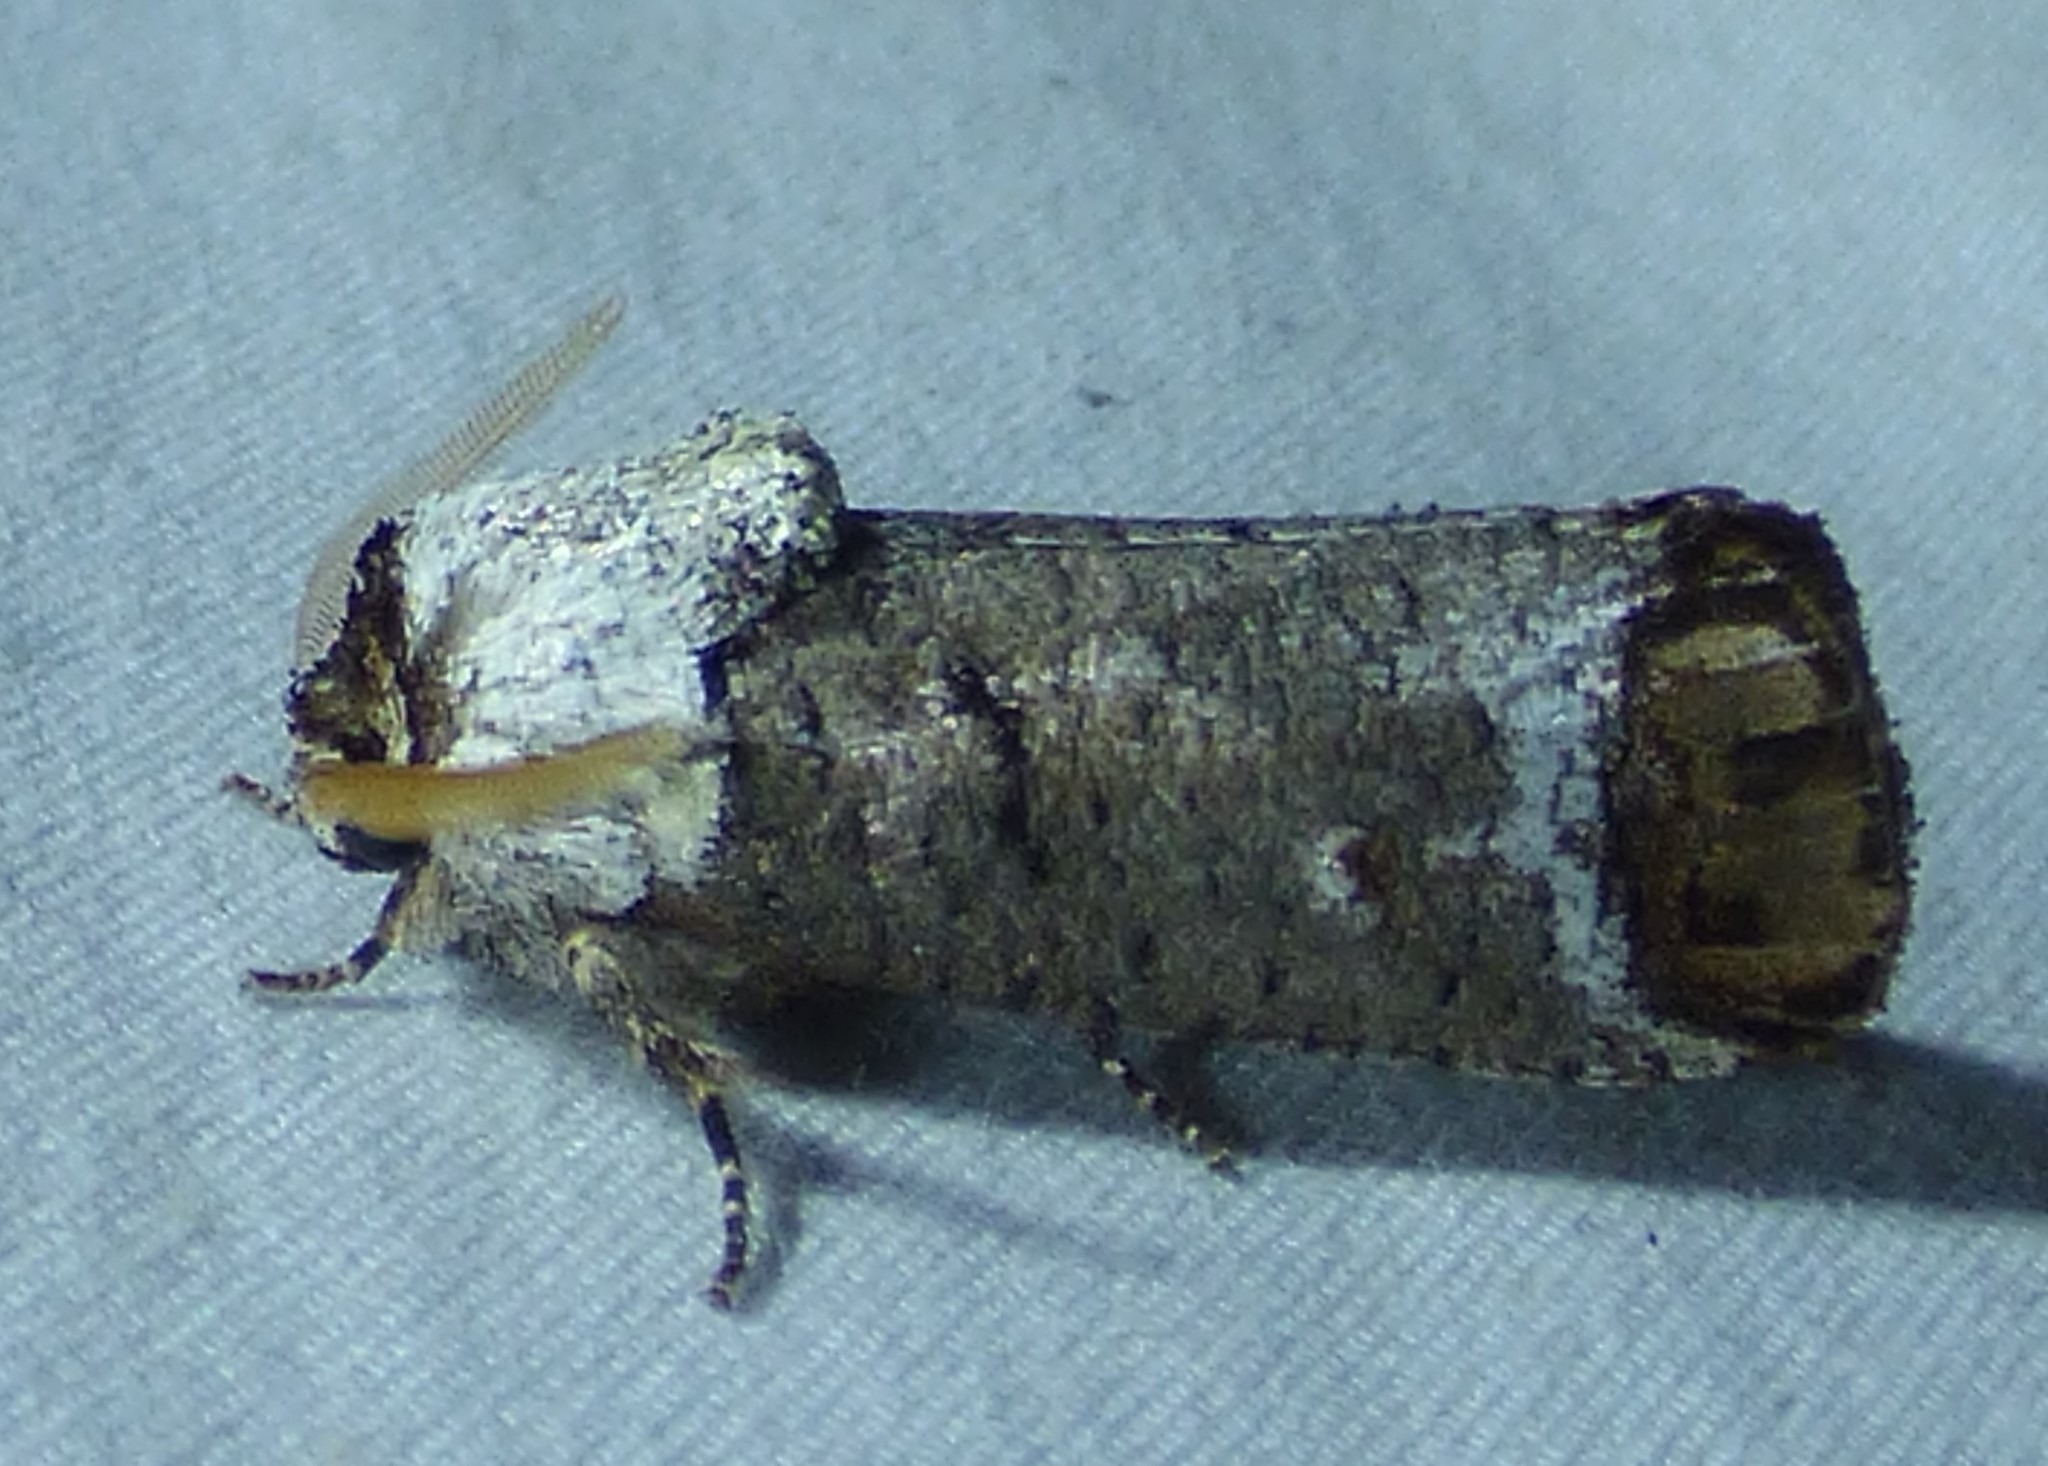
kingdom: Animalia
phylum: Arthropoda
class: Insecta
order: Lepidoptera
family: Cossidae
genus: Cossula
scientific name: Cossula magnifica
